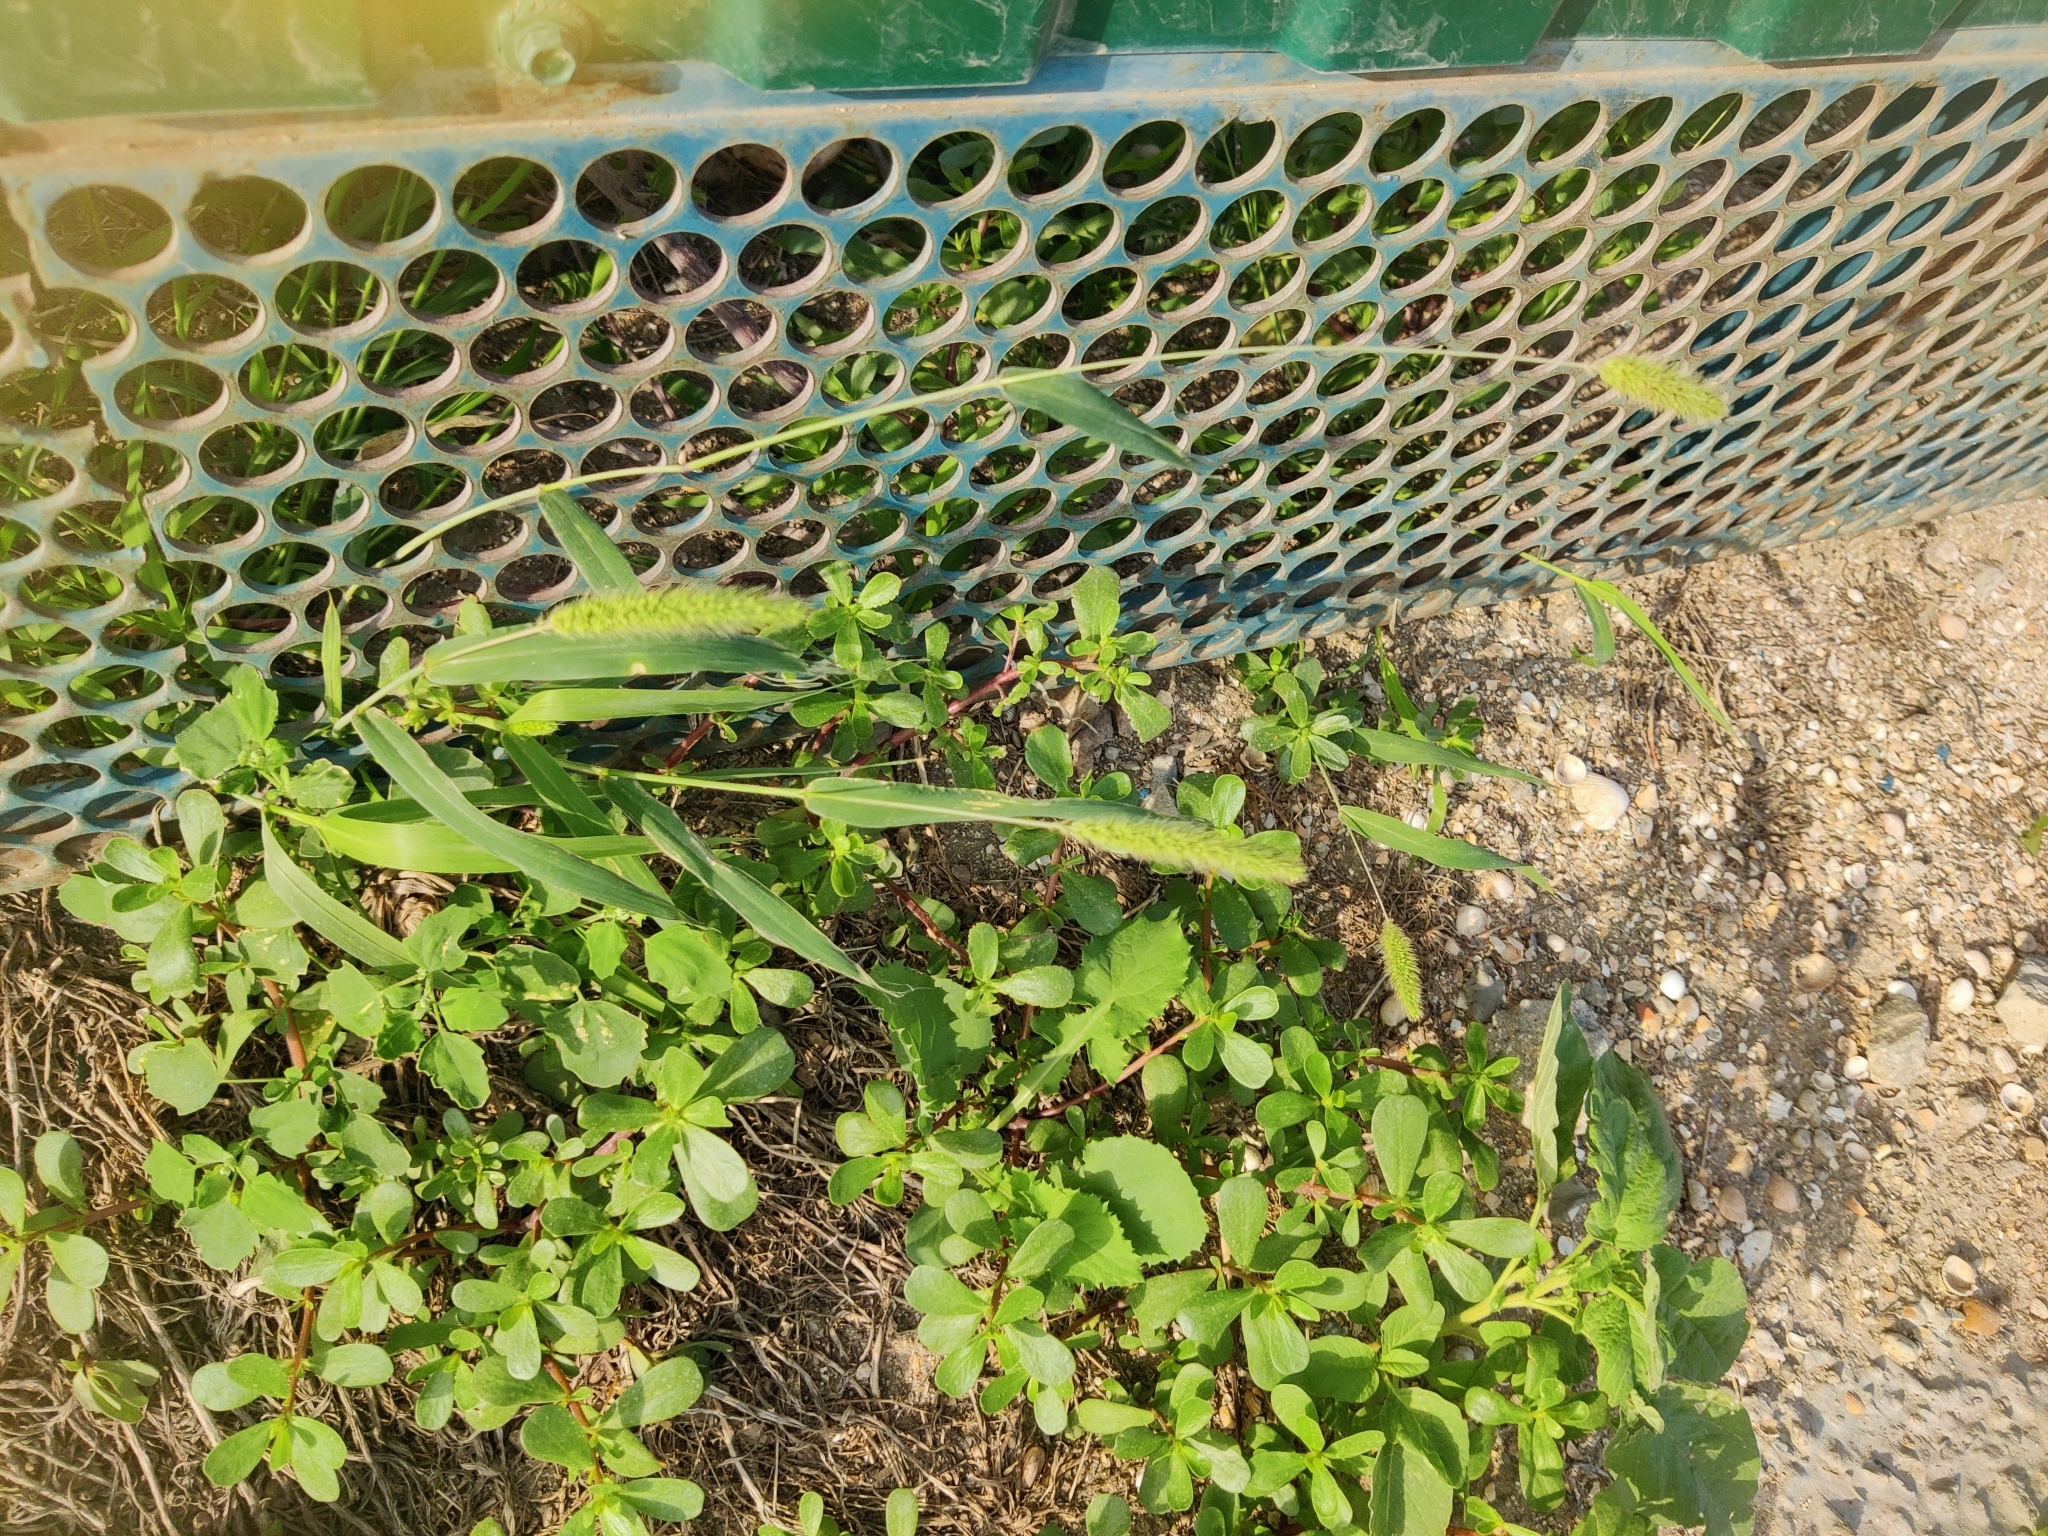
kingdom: Plantae
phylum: Tracheophyta
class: Liliopsida
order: Poales
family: Poaceae
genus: Setaria
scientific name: Setaria viridis
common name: Green bristlegrass
